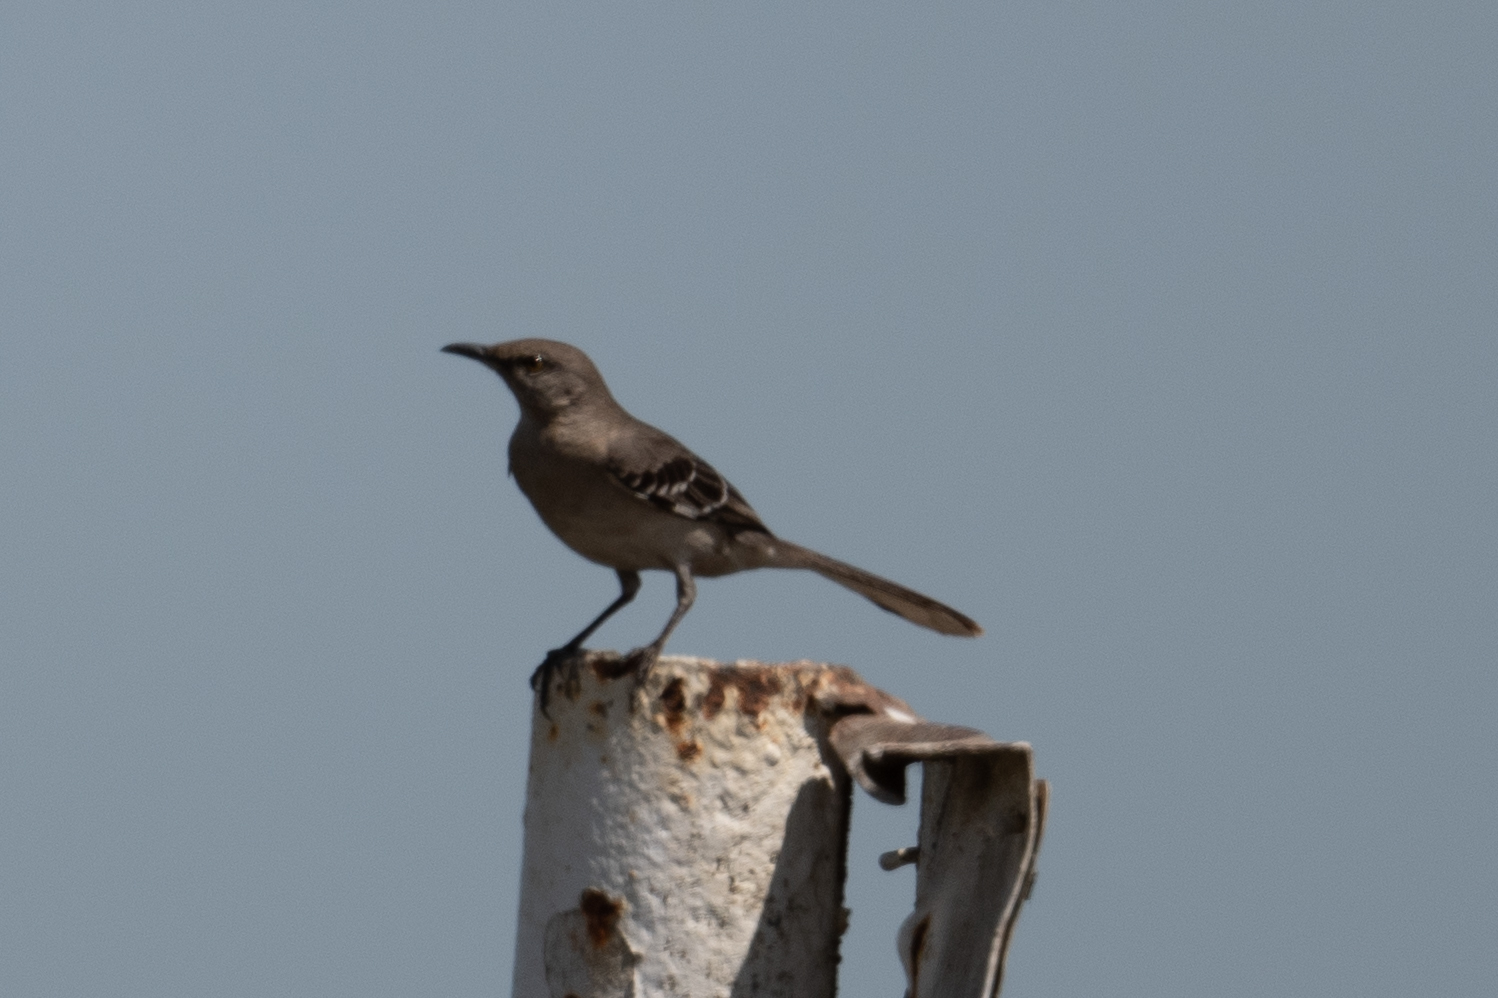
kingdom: Animalia
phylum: Chordata
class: Aves
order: Passeriformes
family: Mimidae
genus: Mimus
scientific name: Mimus polyglottos
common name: Northern mockingbird
